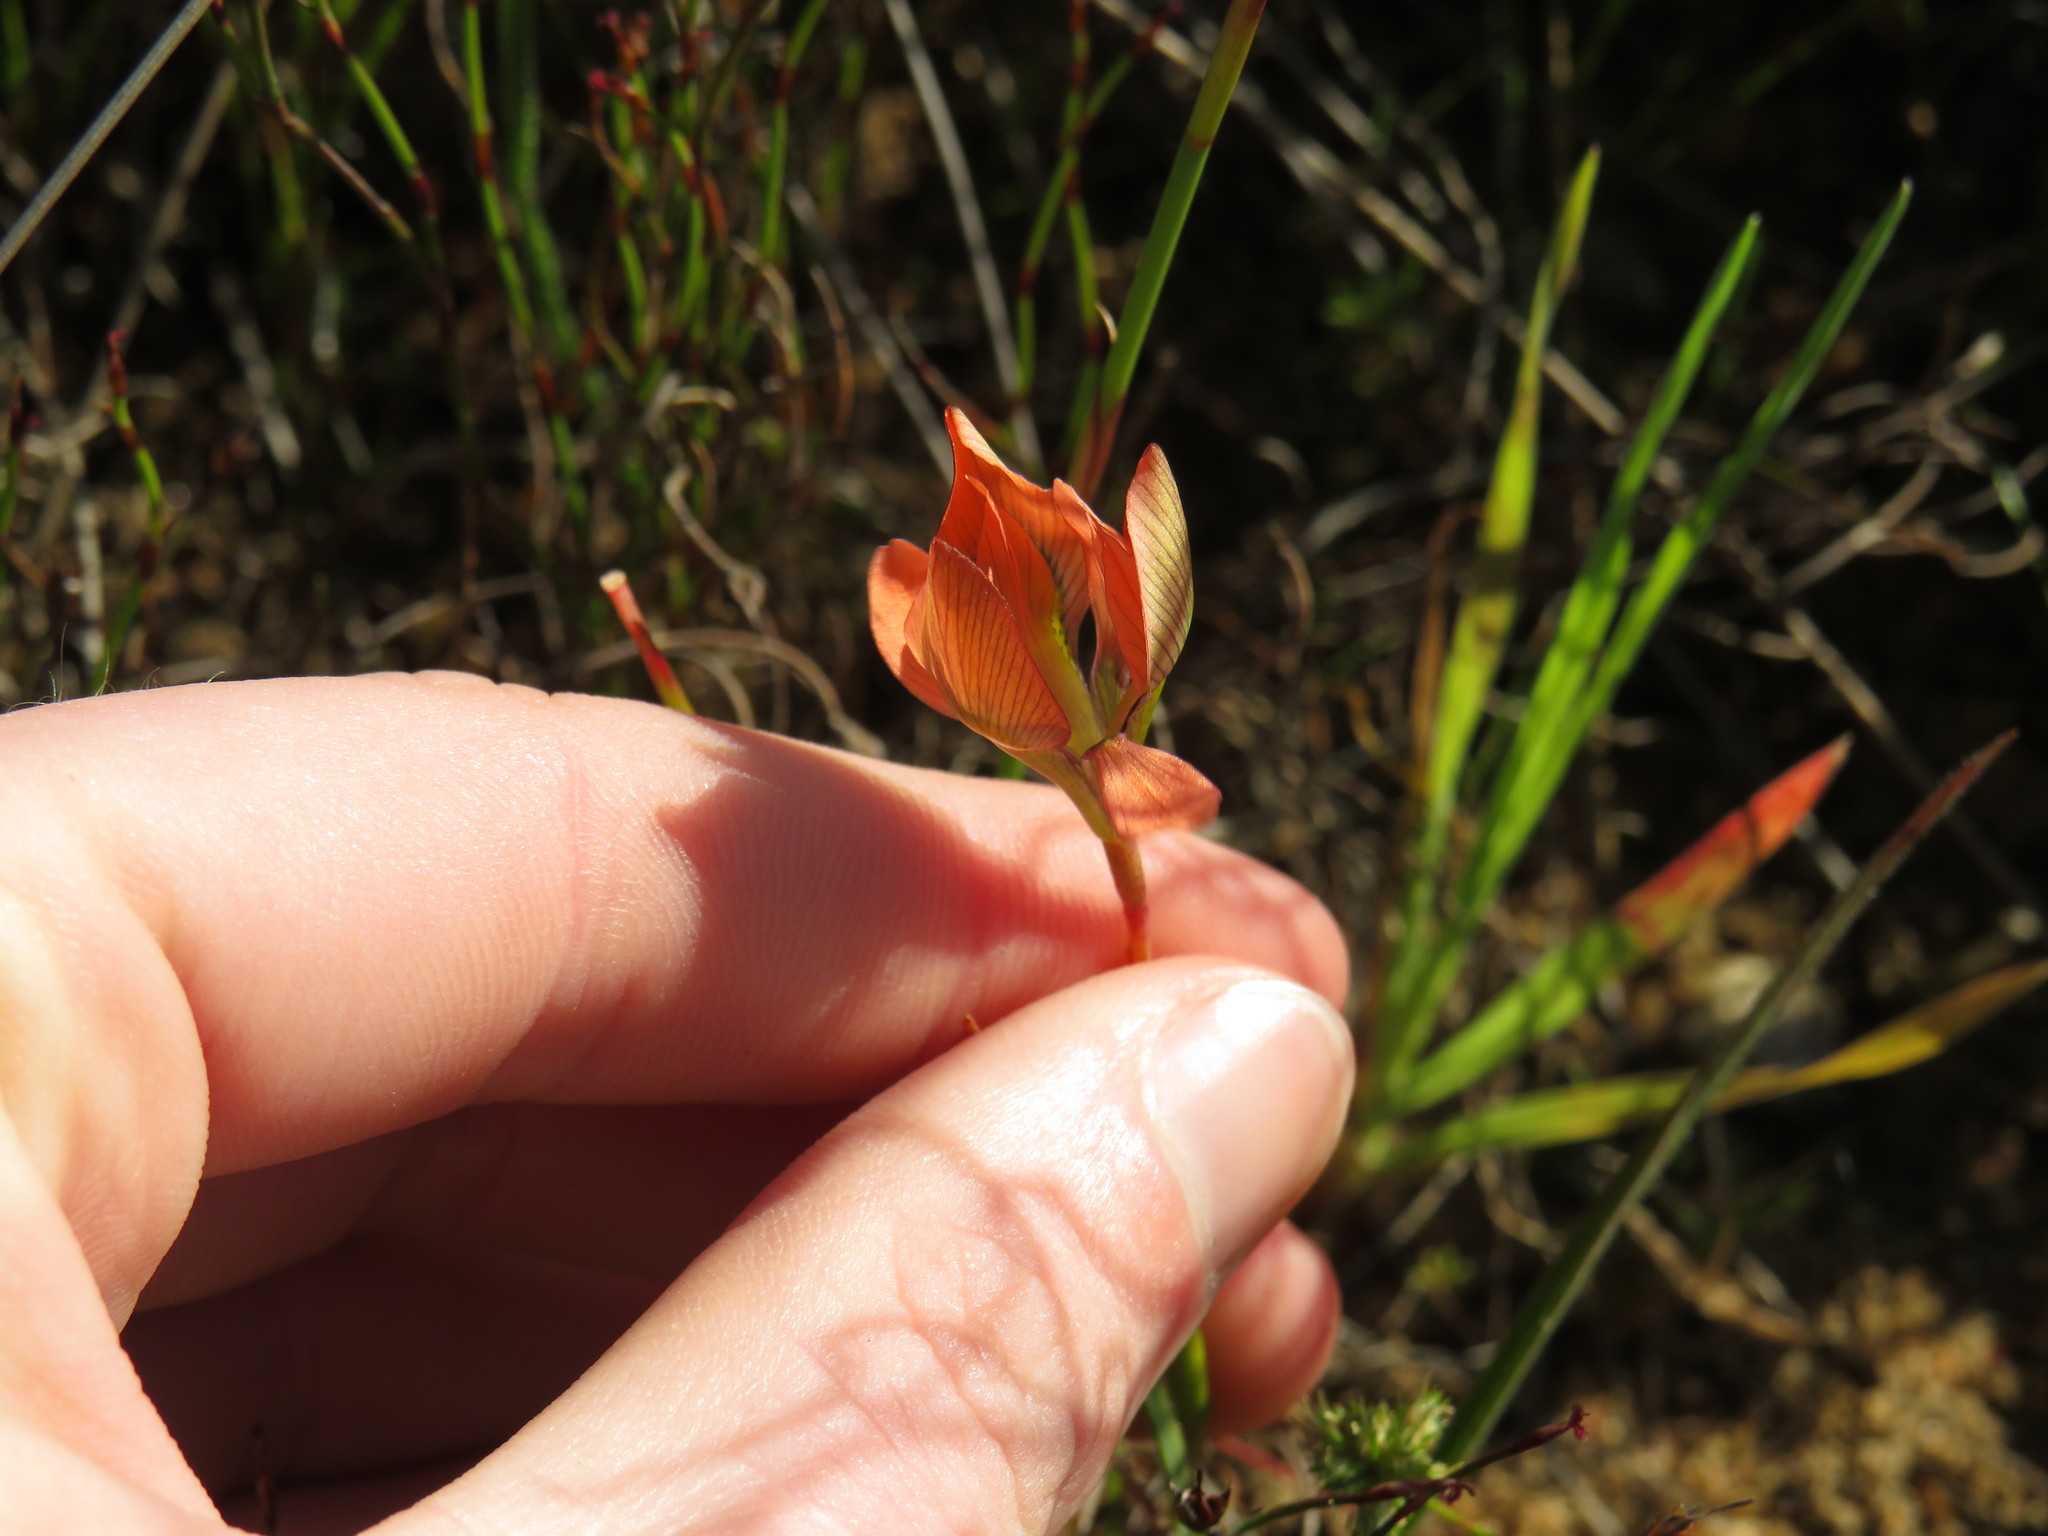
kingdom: Plantae
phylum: Tracheophyta
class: Liliopsida
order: Asparagales
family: Iridaceae
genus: Moraea
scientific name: Moraea papilionacea
